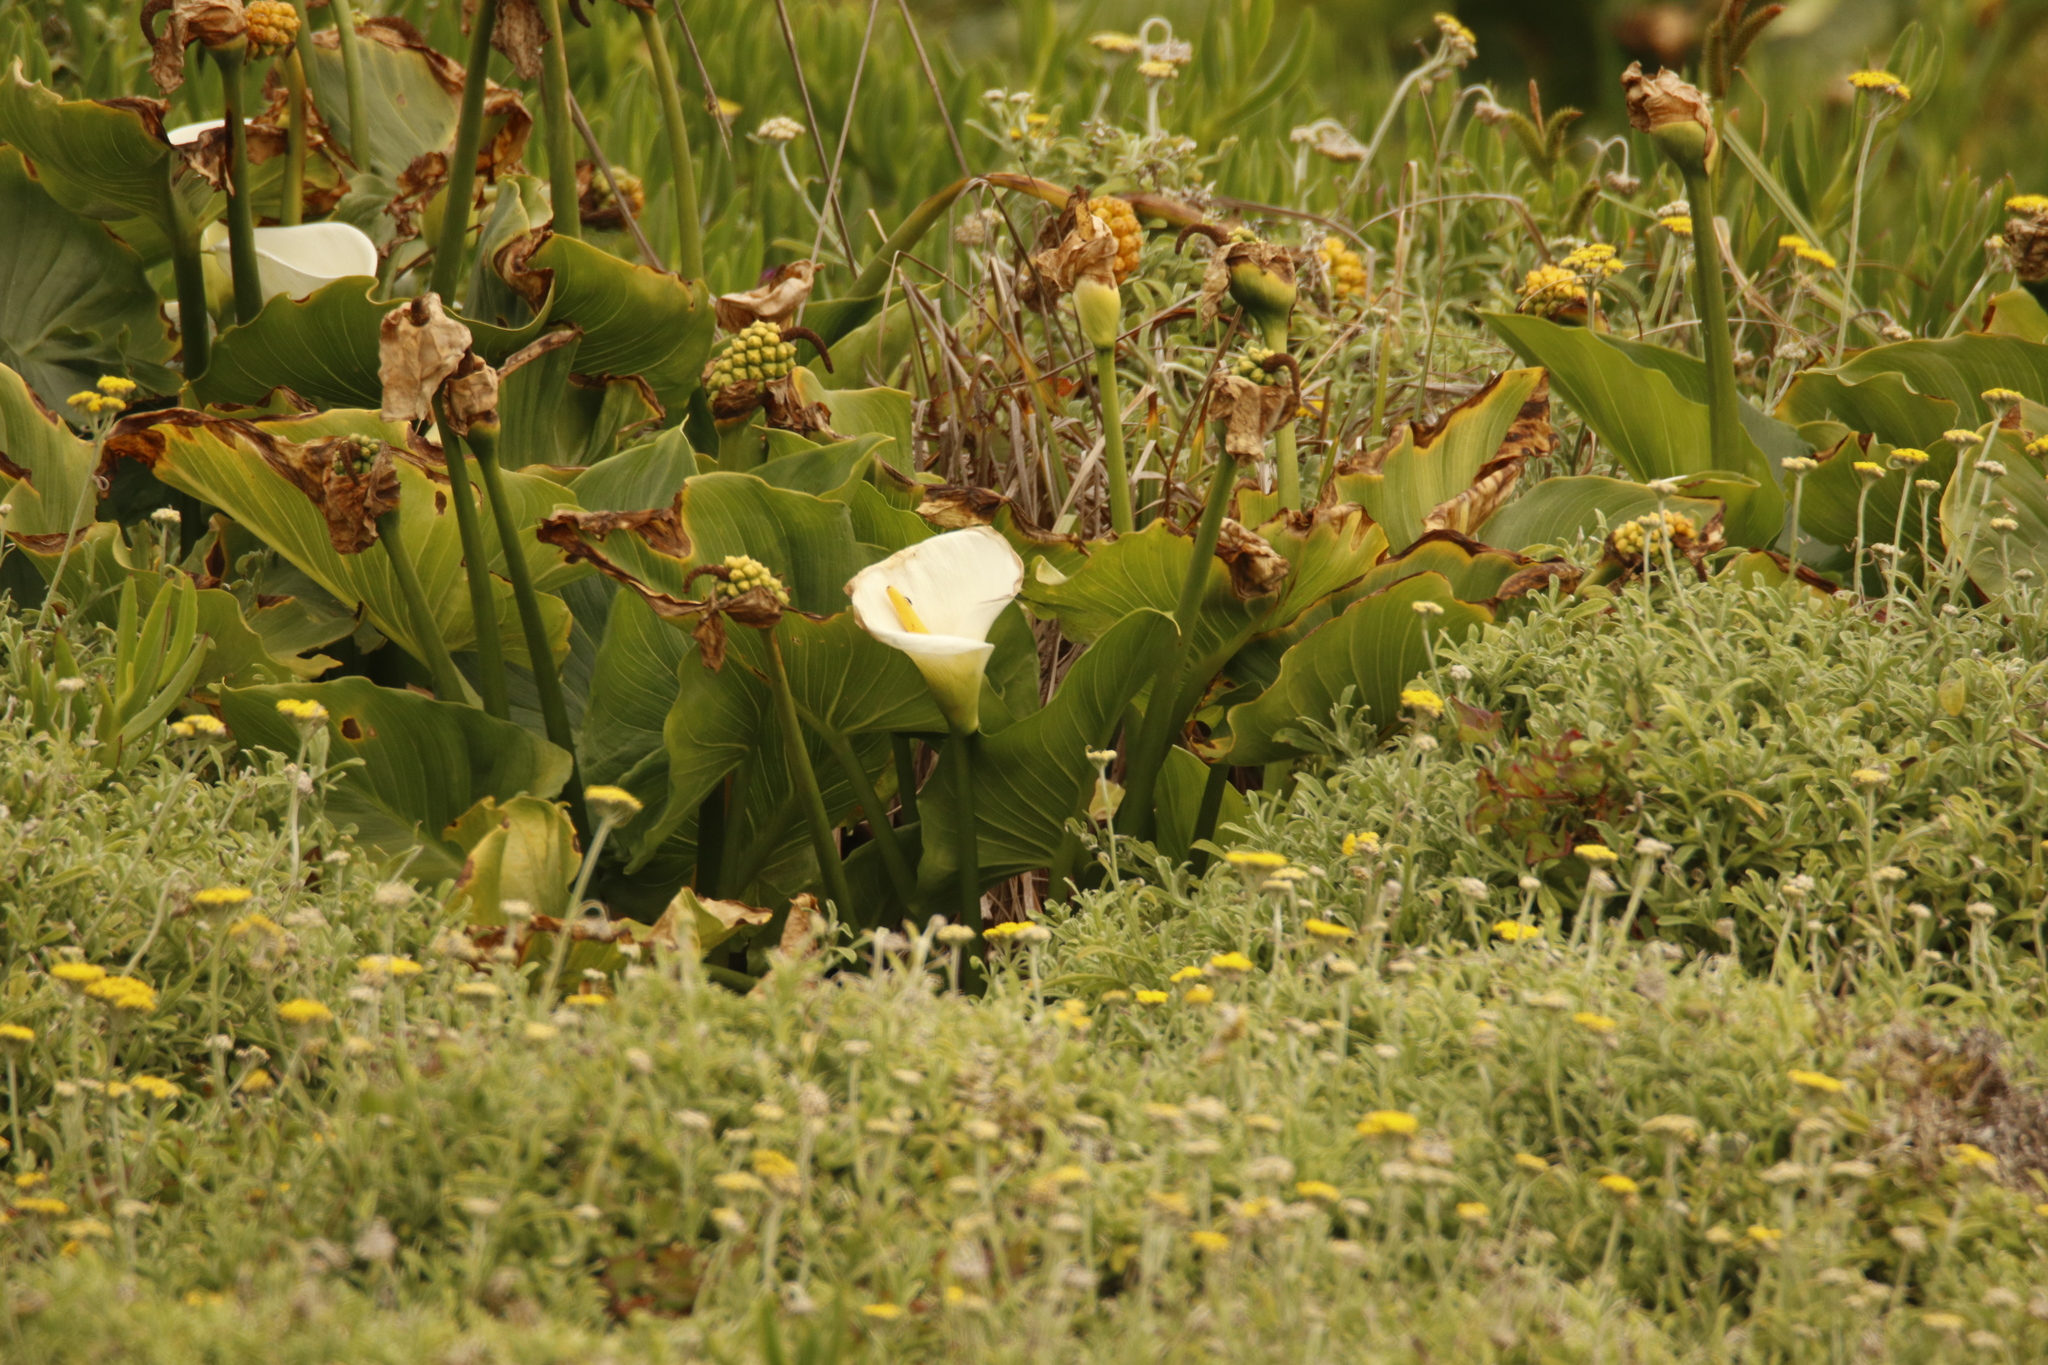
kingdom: Plantae
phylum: Tracheophyta
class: Liliopsida
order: Alismatales
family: Araceae
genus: Zantedeschia
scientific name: Zantedeschia aethiopica
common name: Altar-lily
